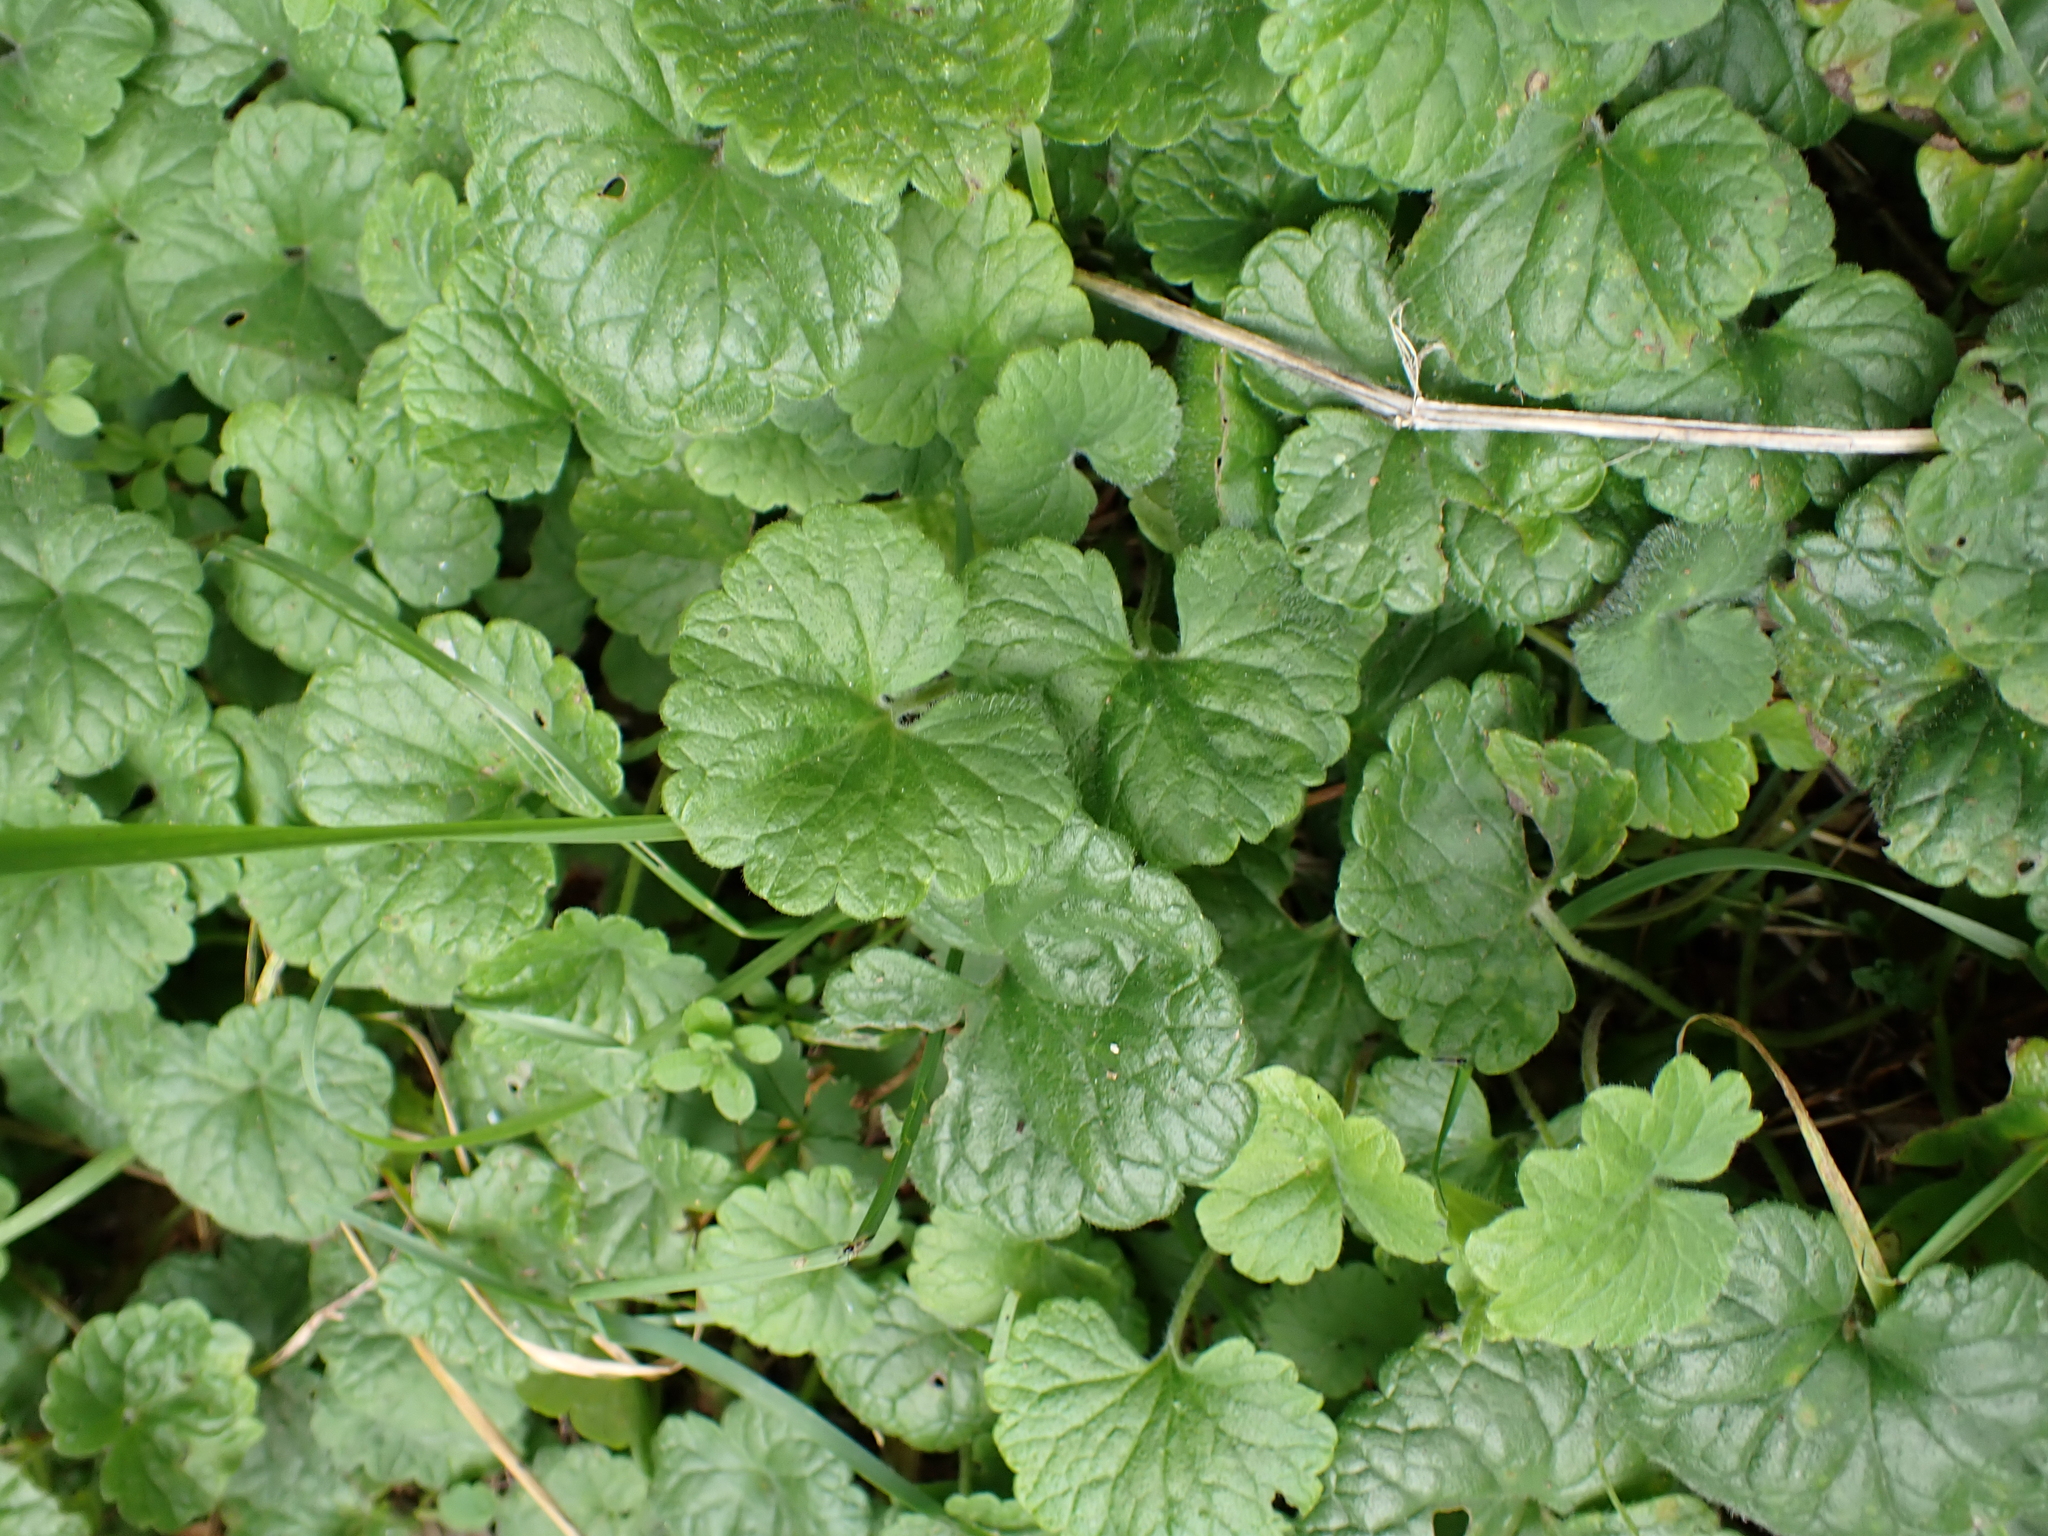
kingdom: Plantae
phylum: Tracheophyta
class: Magnoliopsida
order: Lamiales
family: Lamiaceae
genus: Glechoma
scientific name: Glechoma hederacea
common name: Ground ivy
